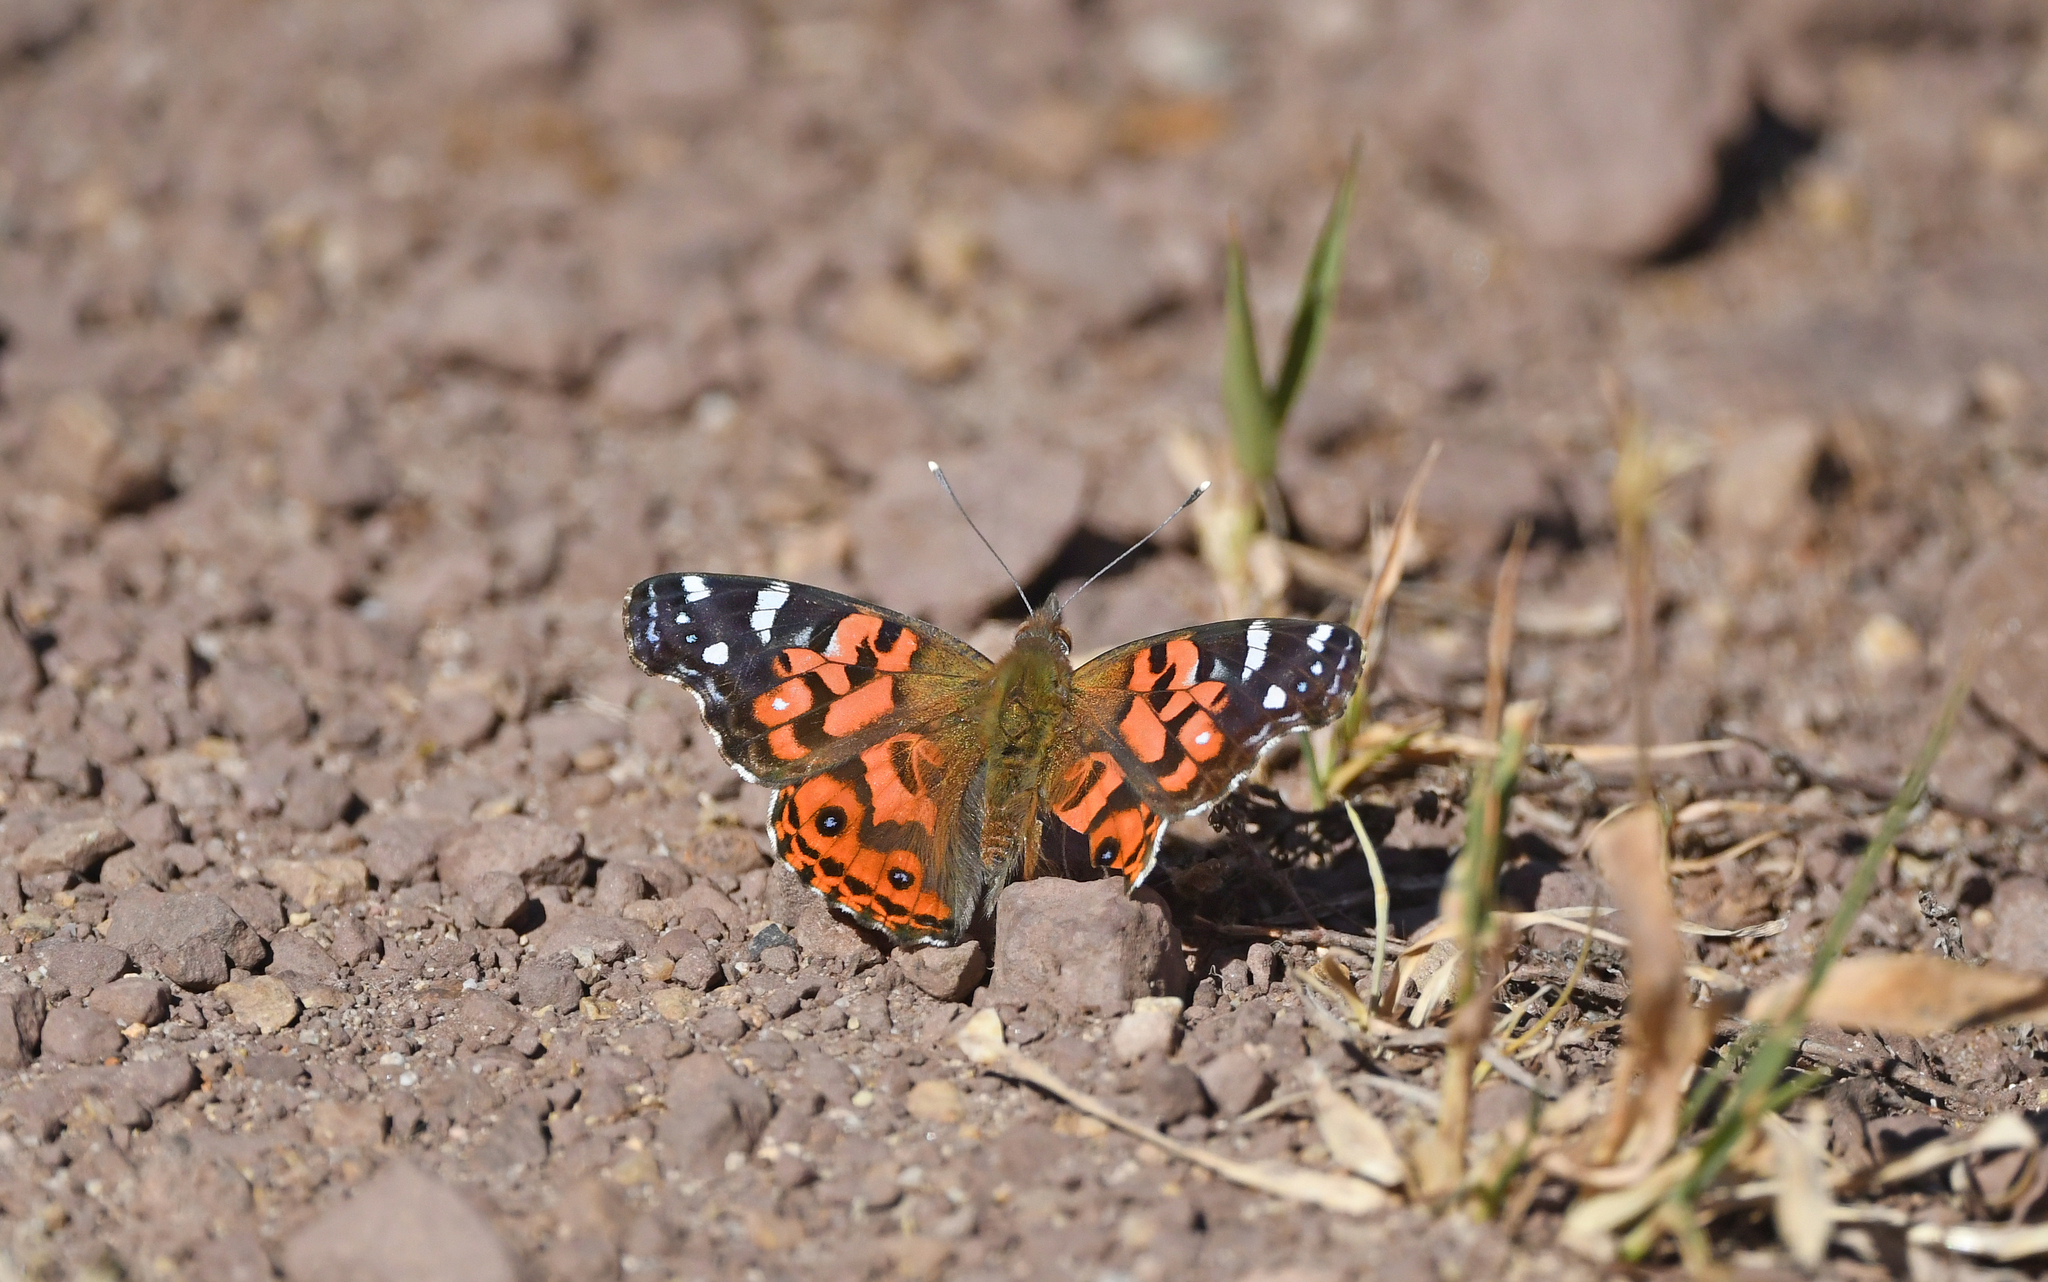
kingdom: Animalia
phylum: Arthropoda
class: Insecta
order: Lepidoptera
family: Nymphalidae
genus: Vanessa
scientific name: Vanessa braziliensis
